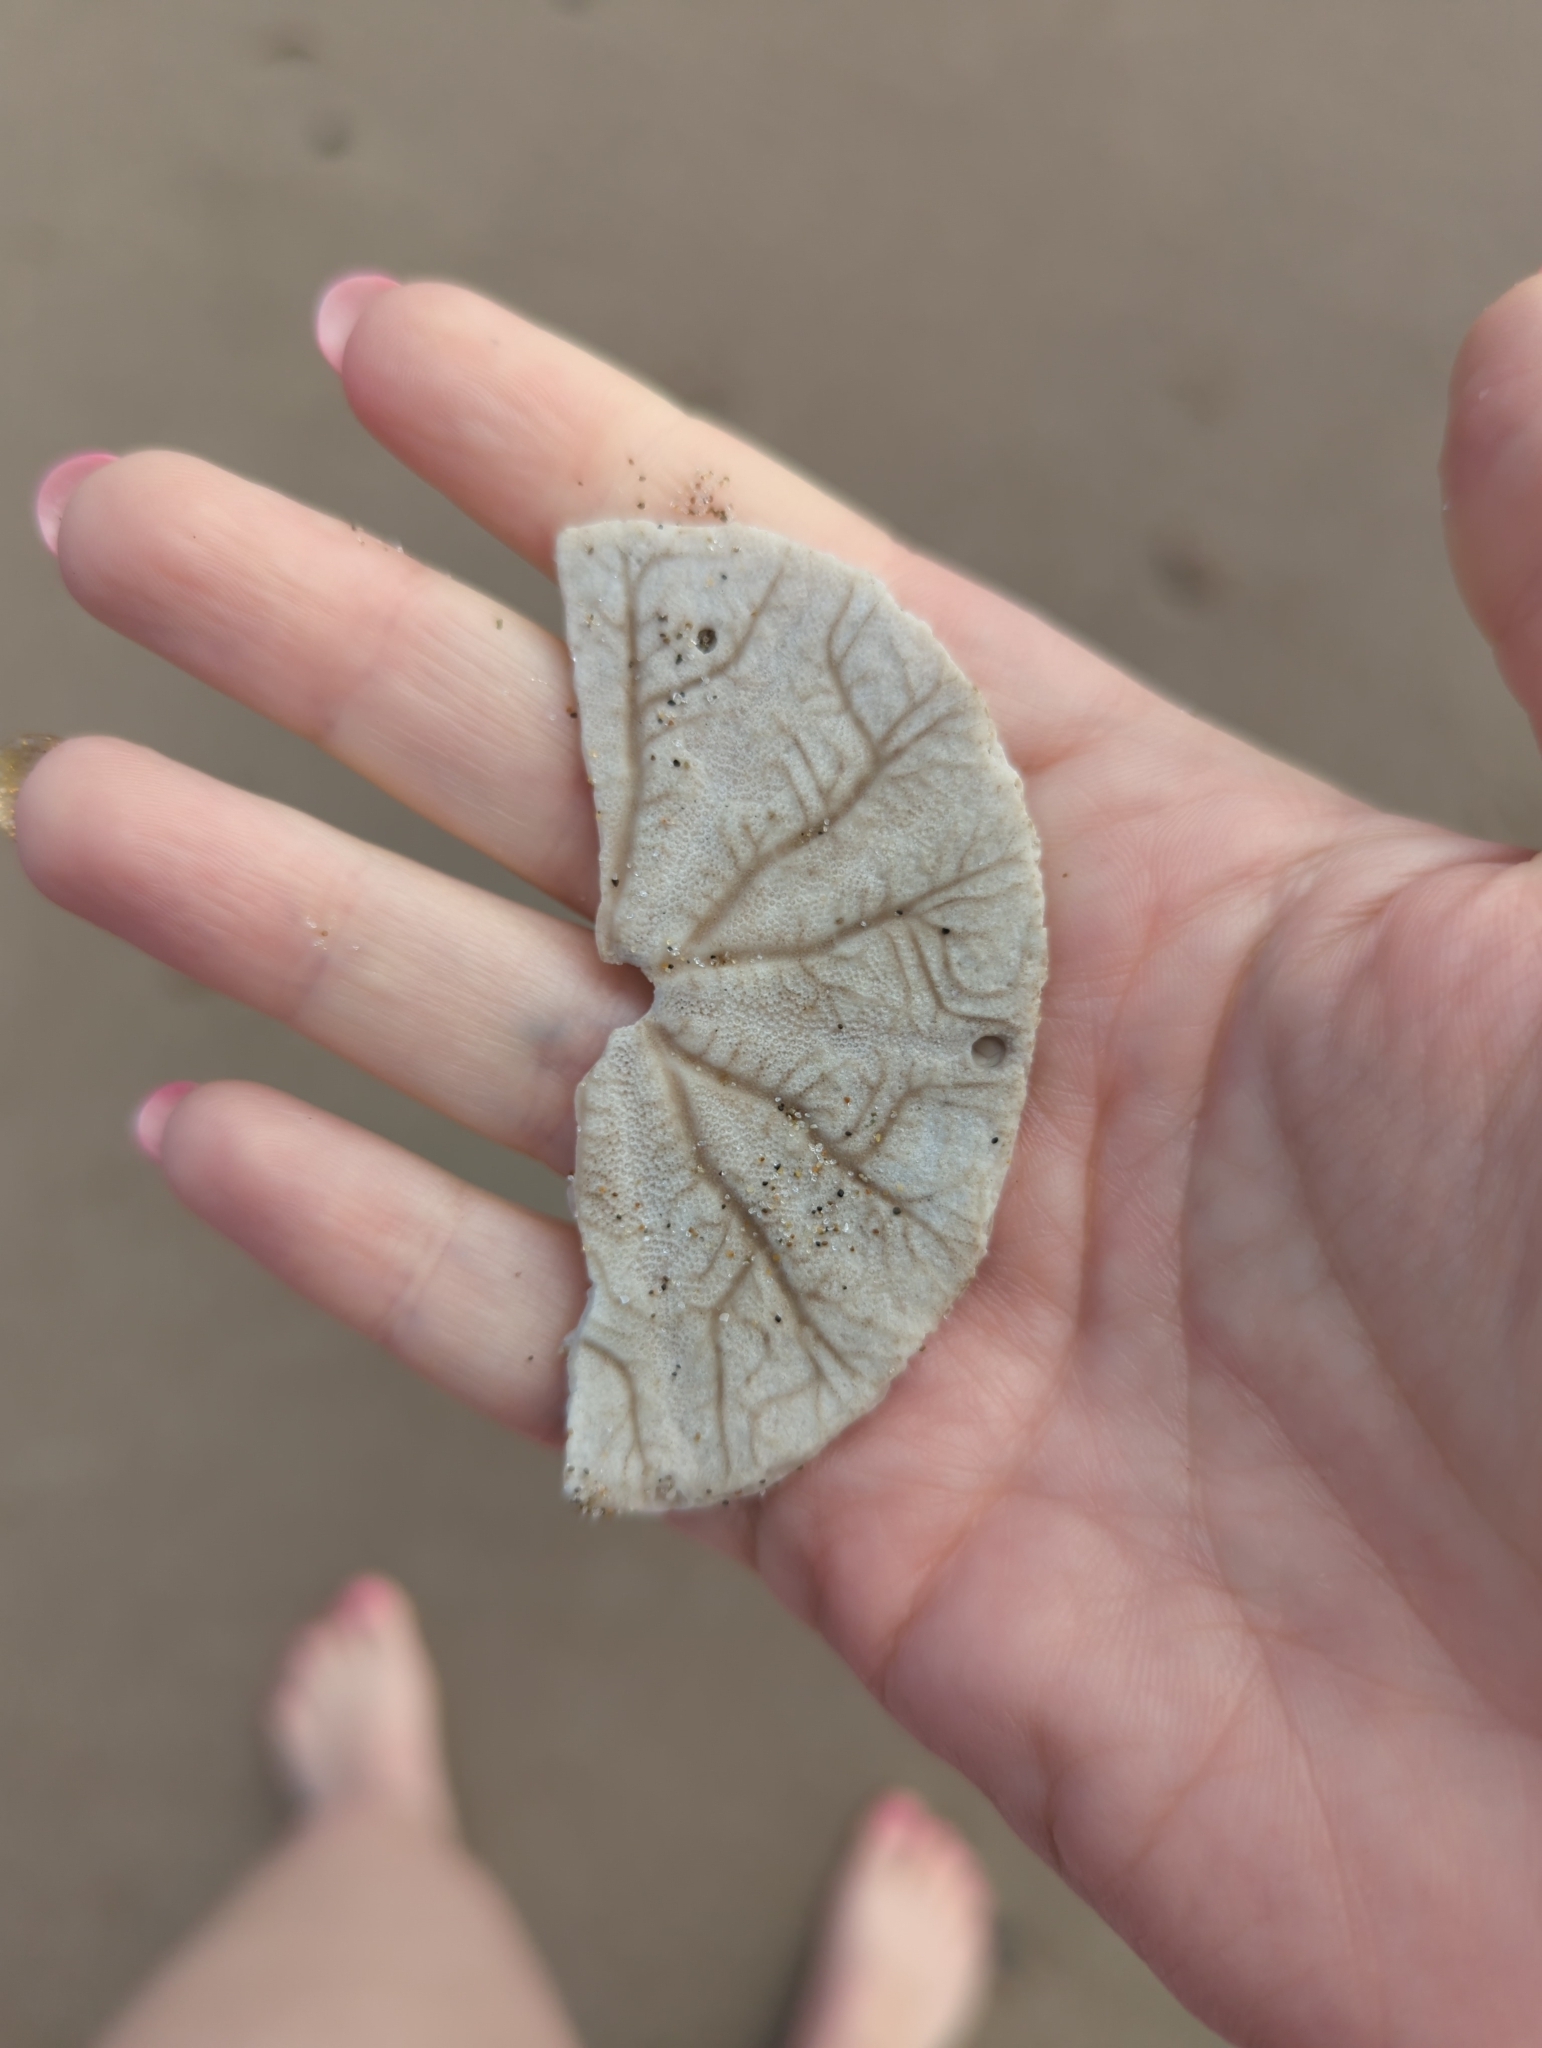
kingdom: Animalia
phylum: Echinodermata
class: Echinoidea
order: Echinolampadacea
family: Dendrasteridae
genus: Dendraster
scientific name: Dendraster excentricus
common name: Eccentric sand dollar sea urchin
